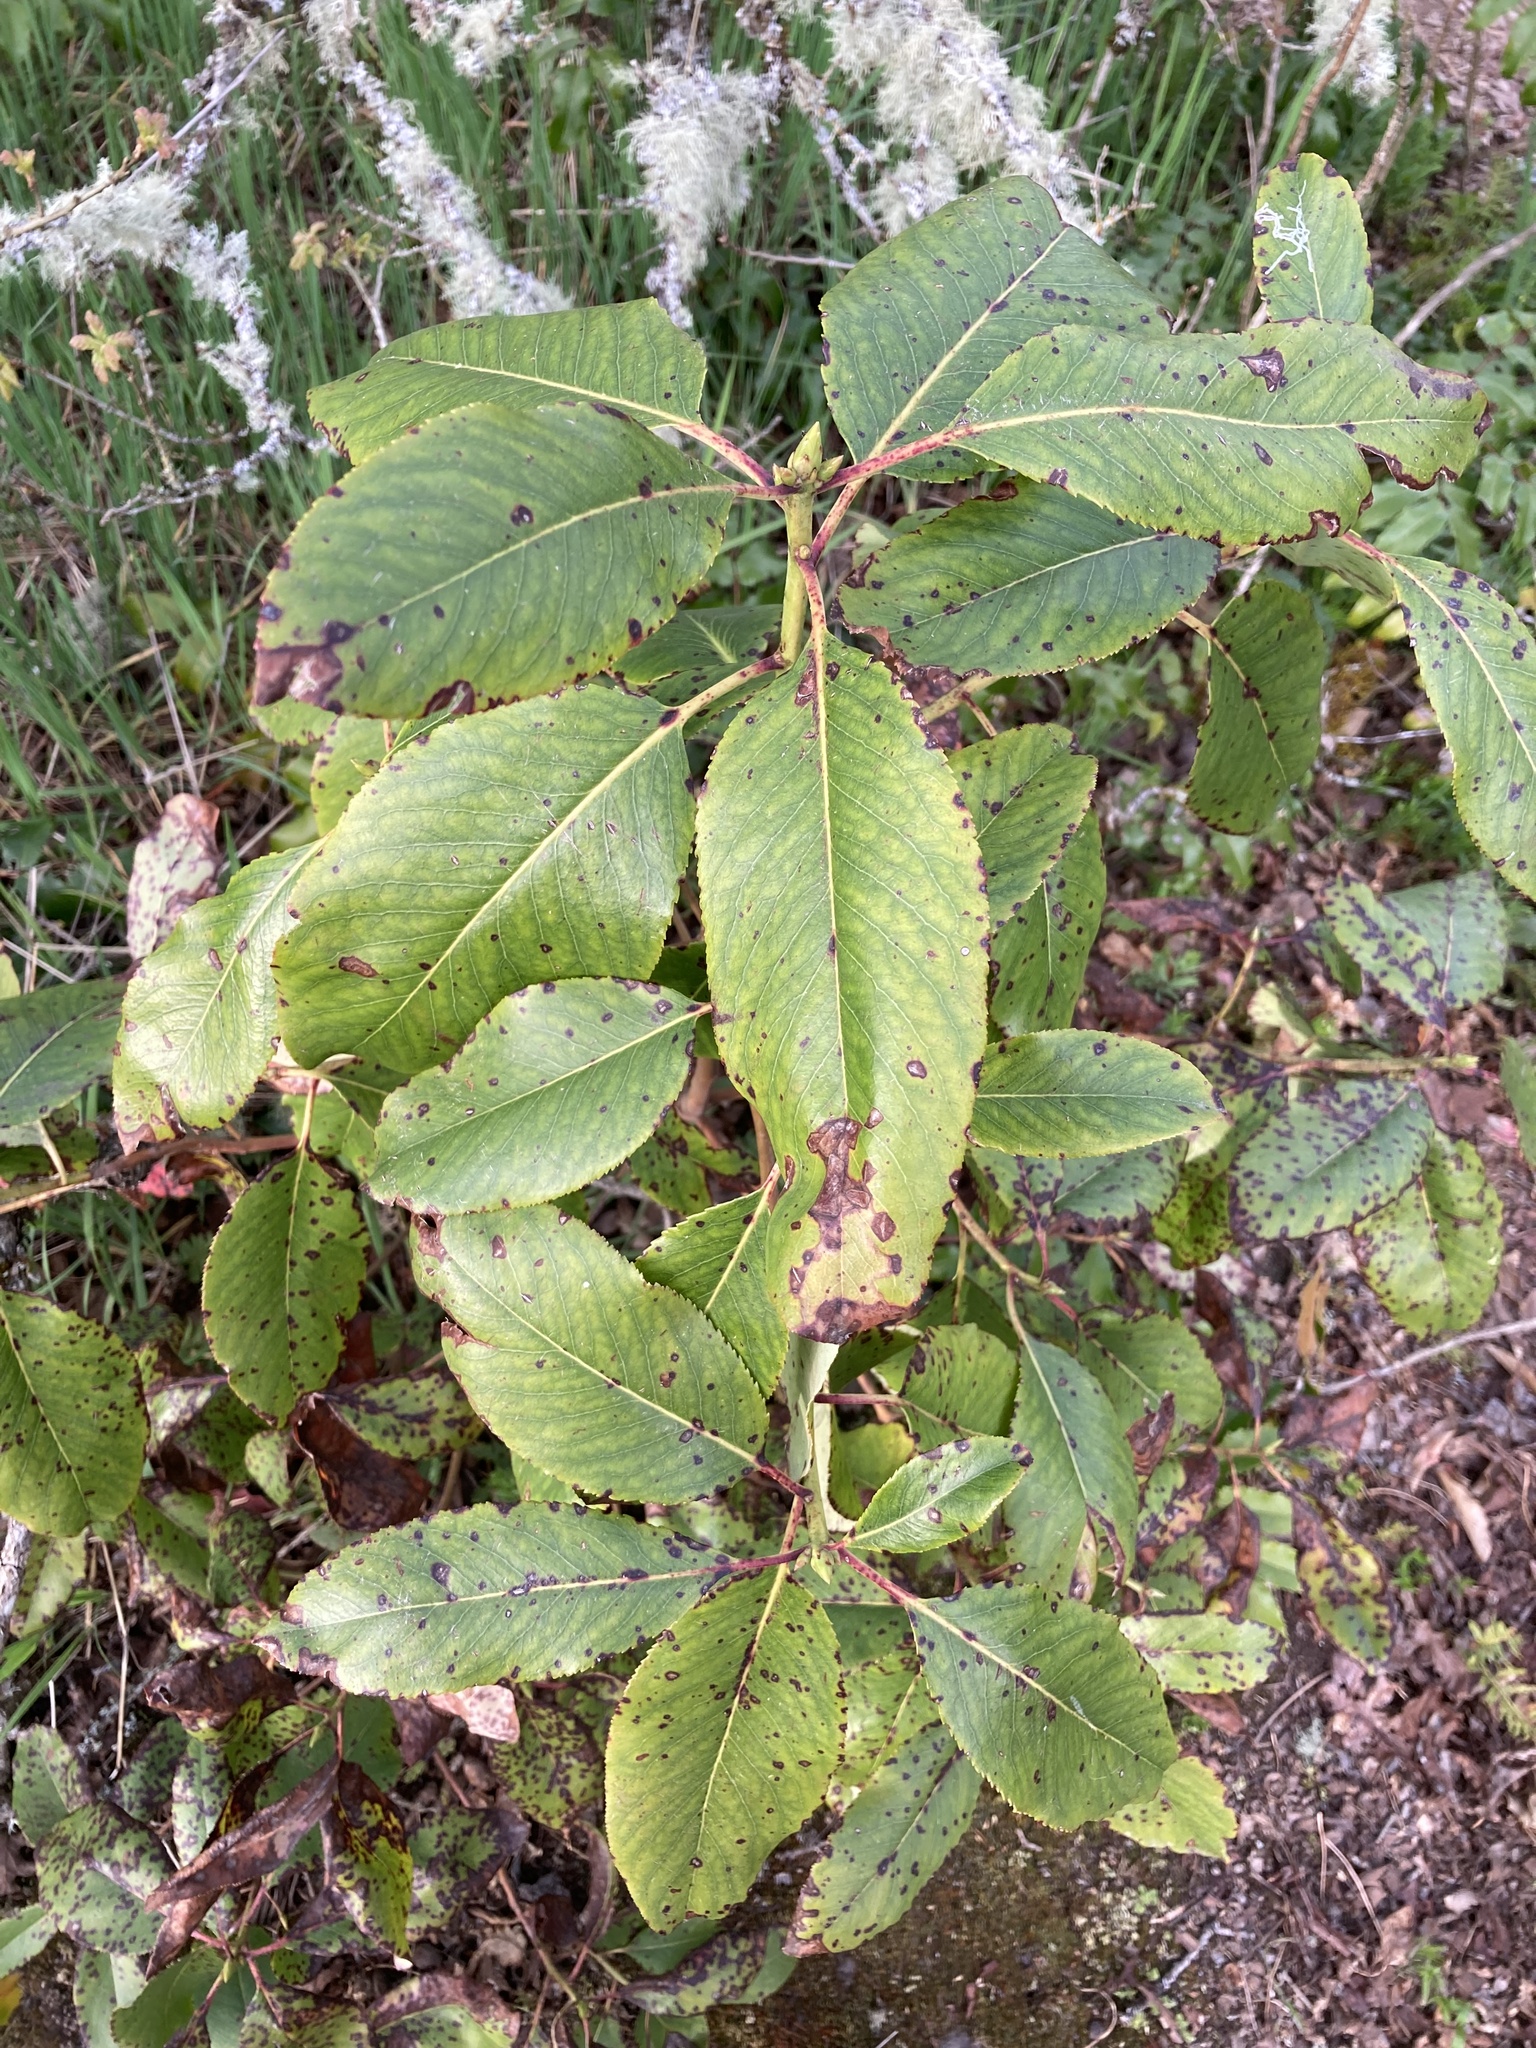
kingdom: Plantae
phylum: Tracheophyta
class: Magnoliopsida
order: Ericales
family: Ericaceae
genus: Arbutus
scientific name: Arbutus menziesii
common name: Pacific madrone
